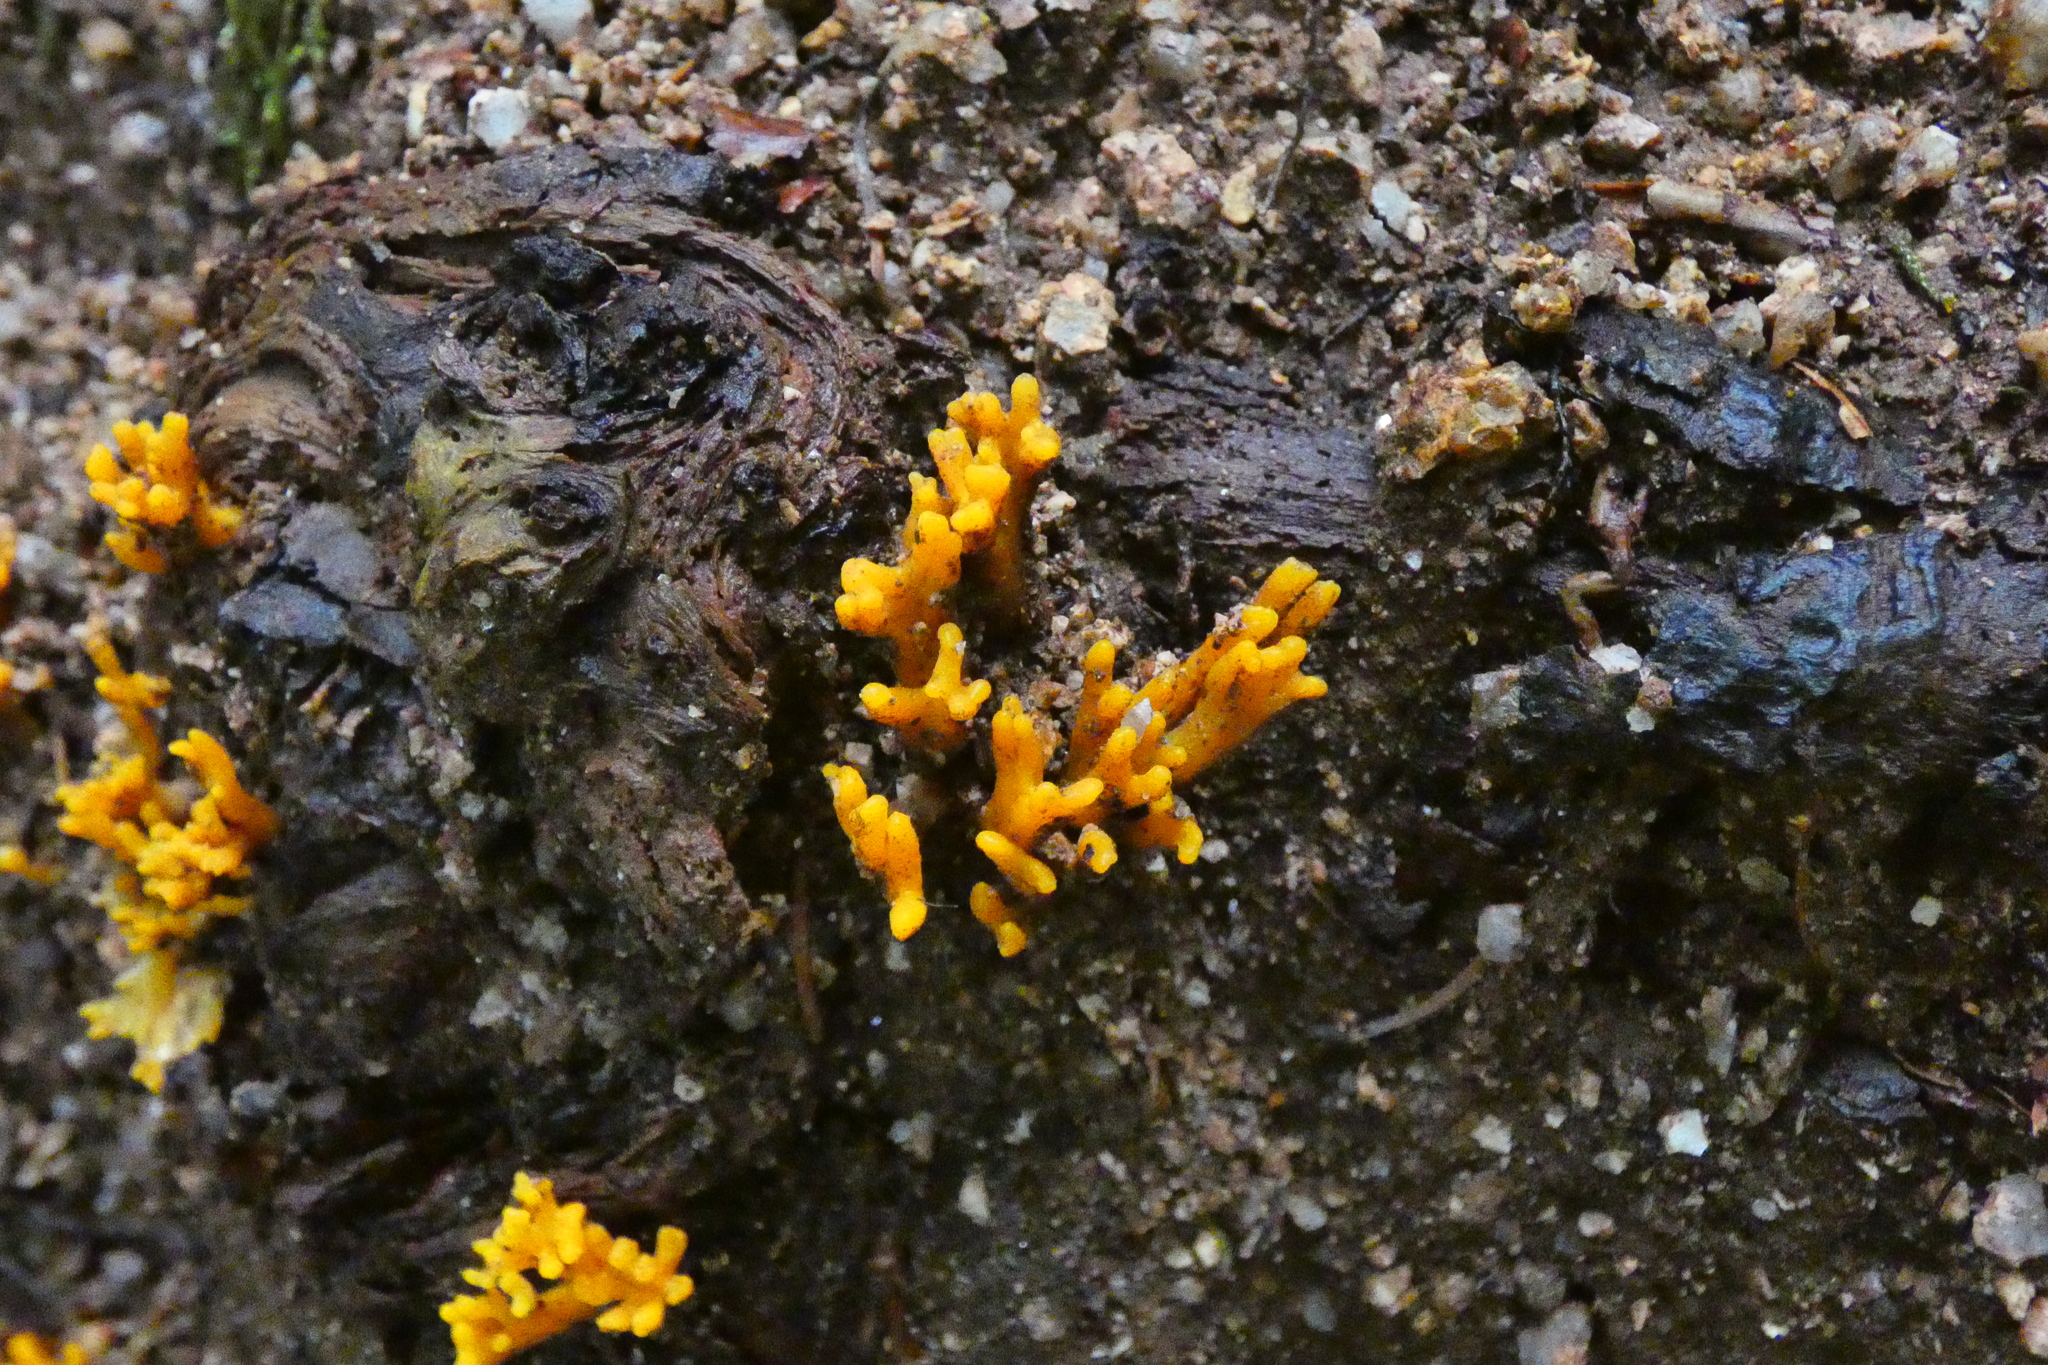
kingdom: Fungi
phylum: Basidiomycota
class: Dacrymycetes
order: Dacrymycetales
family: Dacrymycetaceae
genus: Calocera
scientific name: Calocera viscosa
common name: Yellow stagshorn
